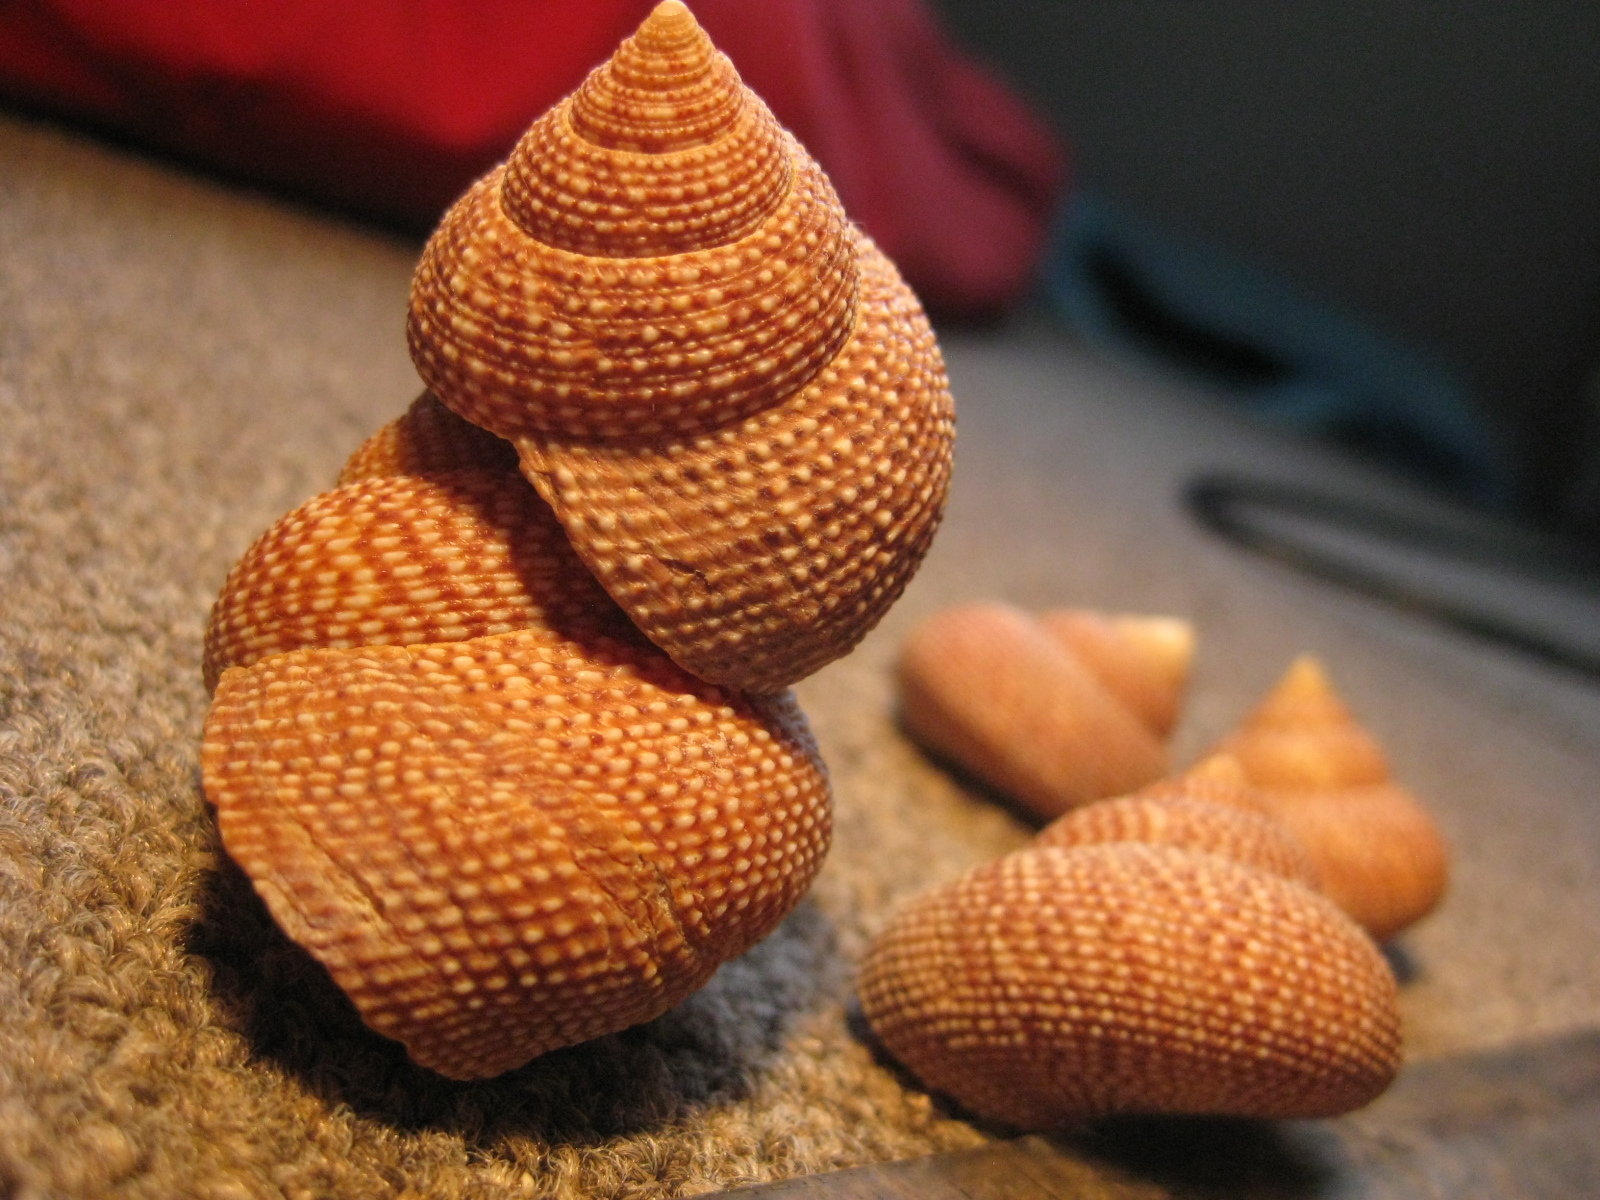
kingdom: Animalia
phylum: Mollusca
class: Gastropoda
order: Trochida
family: Calliostomatidae
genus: Maurea
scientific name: Maurea punctulata
